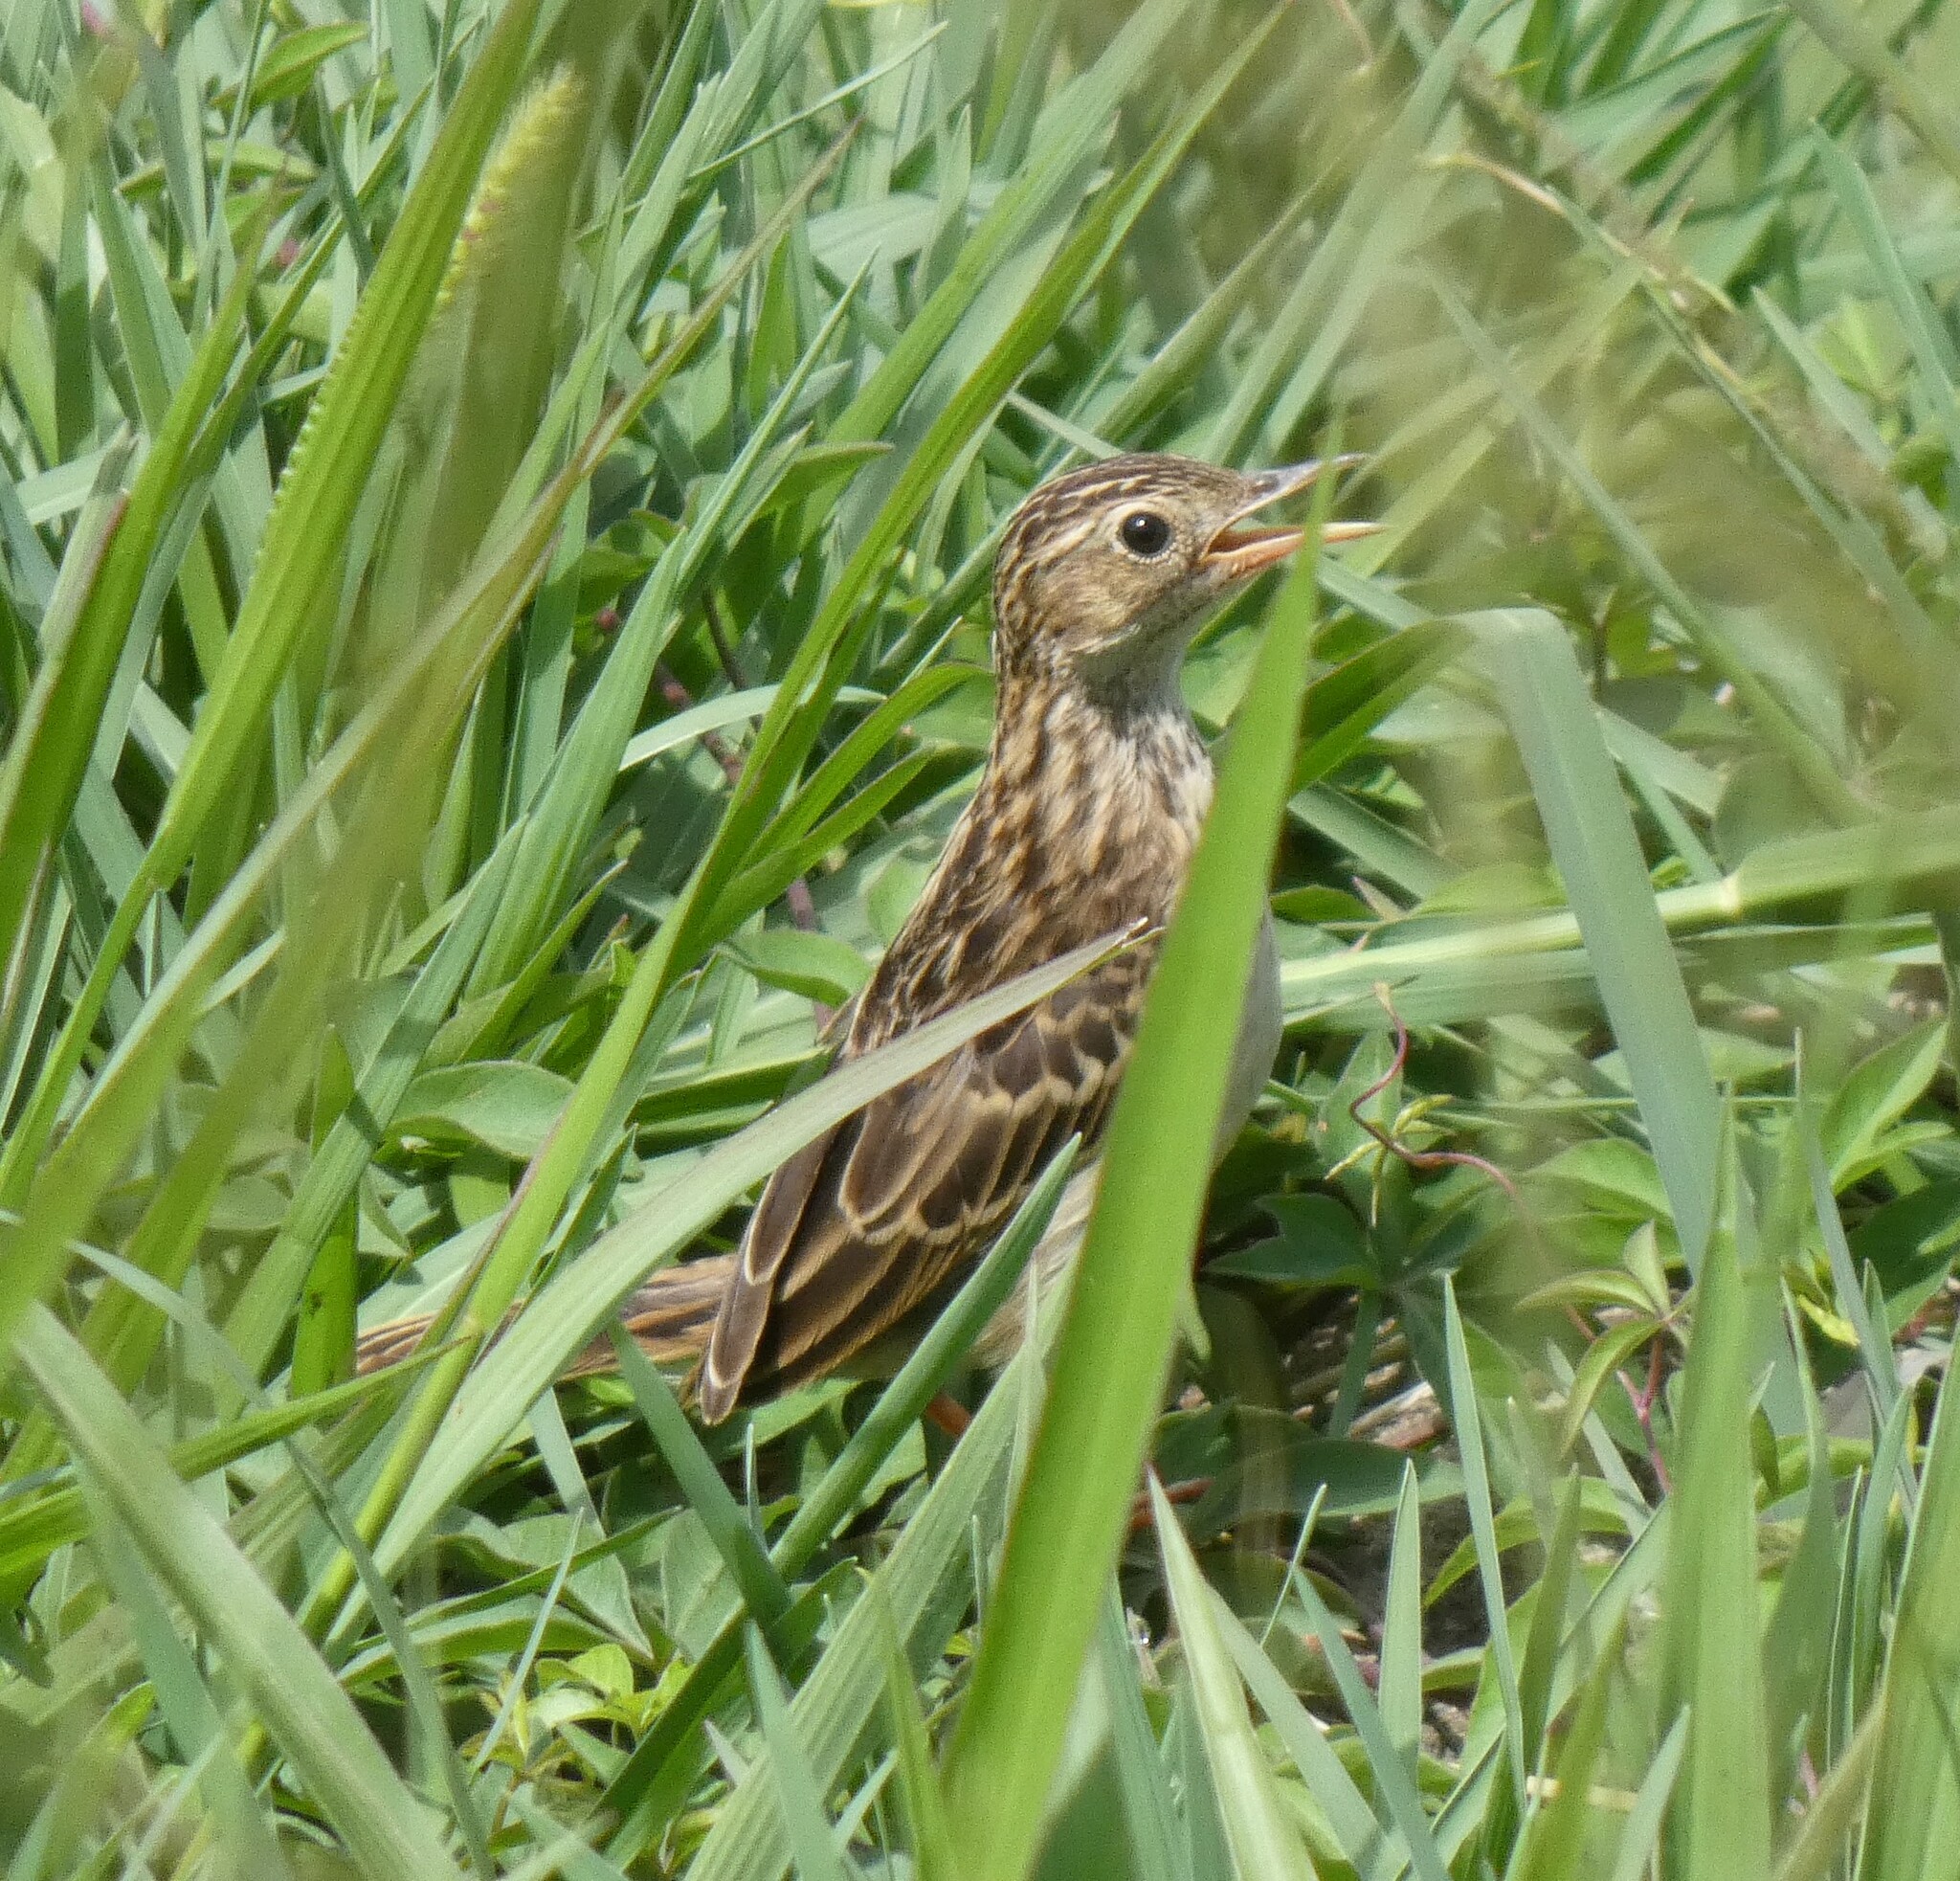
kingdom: Animalia
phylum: Chordata
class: Aves
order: Passeriformes
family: Motacillidae
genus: Anthus
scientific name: Anthus chii
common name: Yellowish pipit
